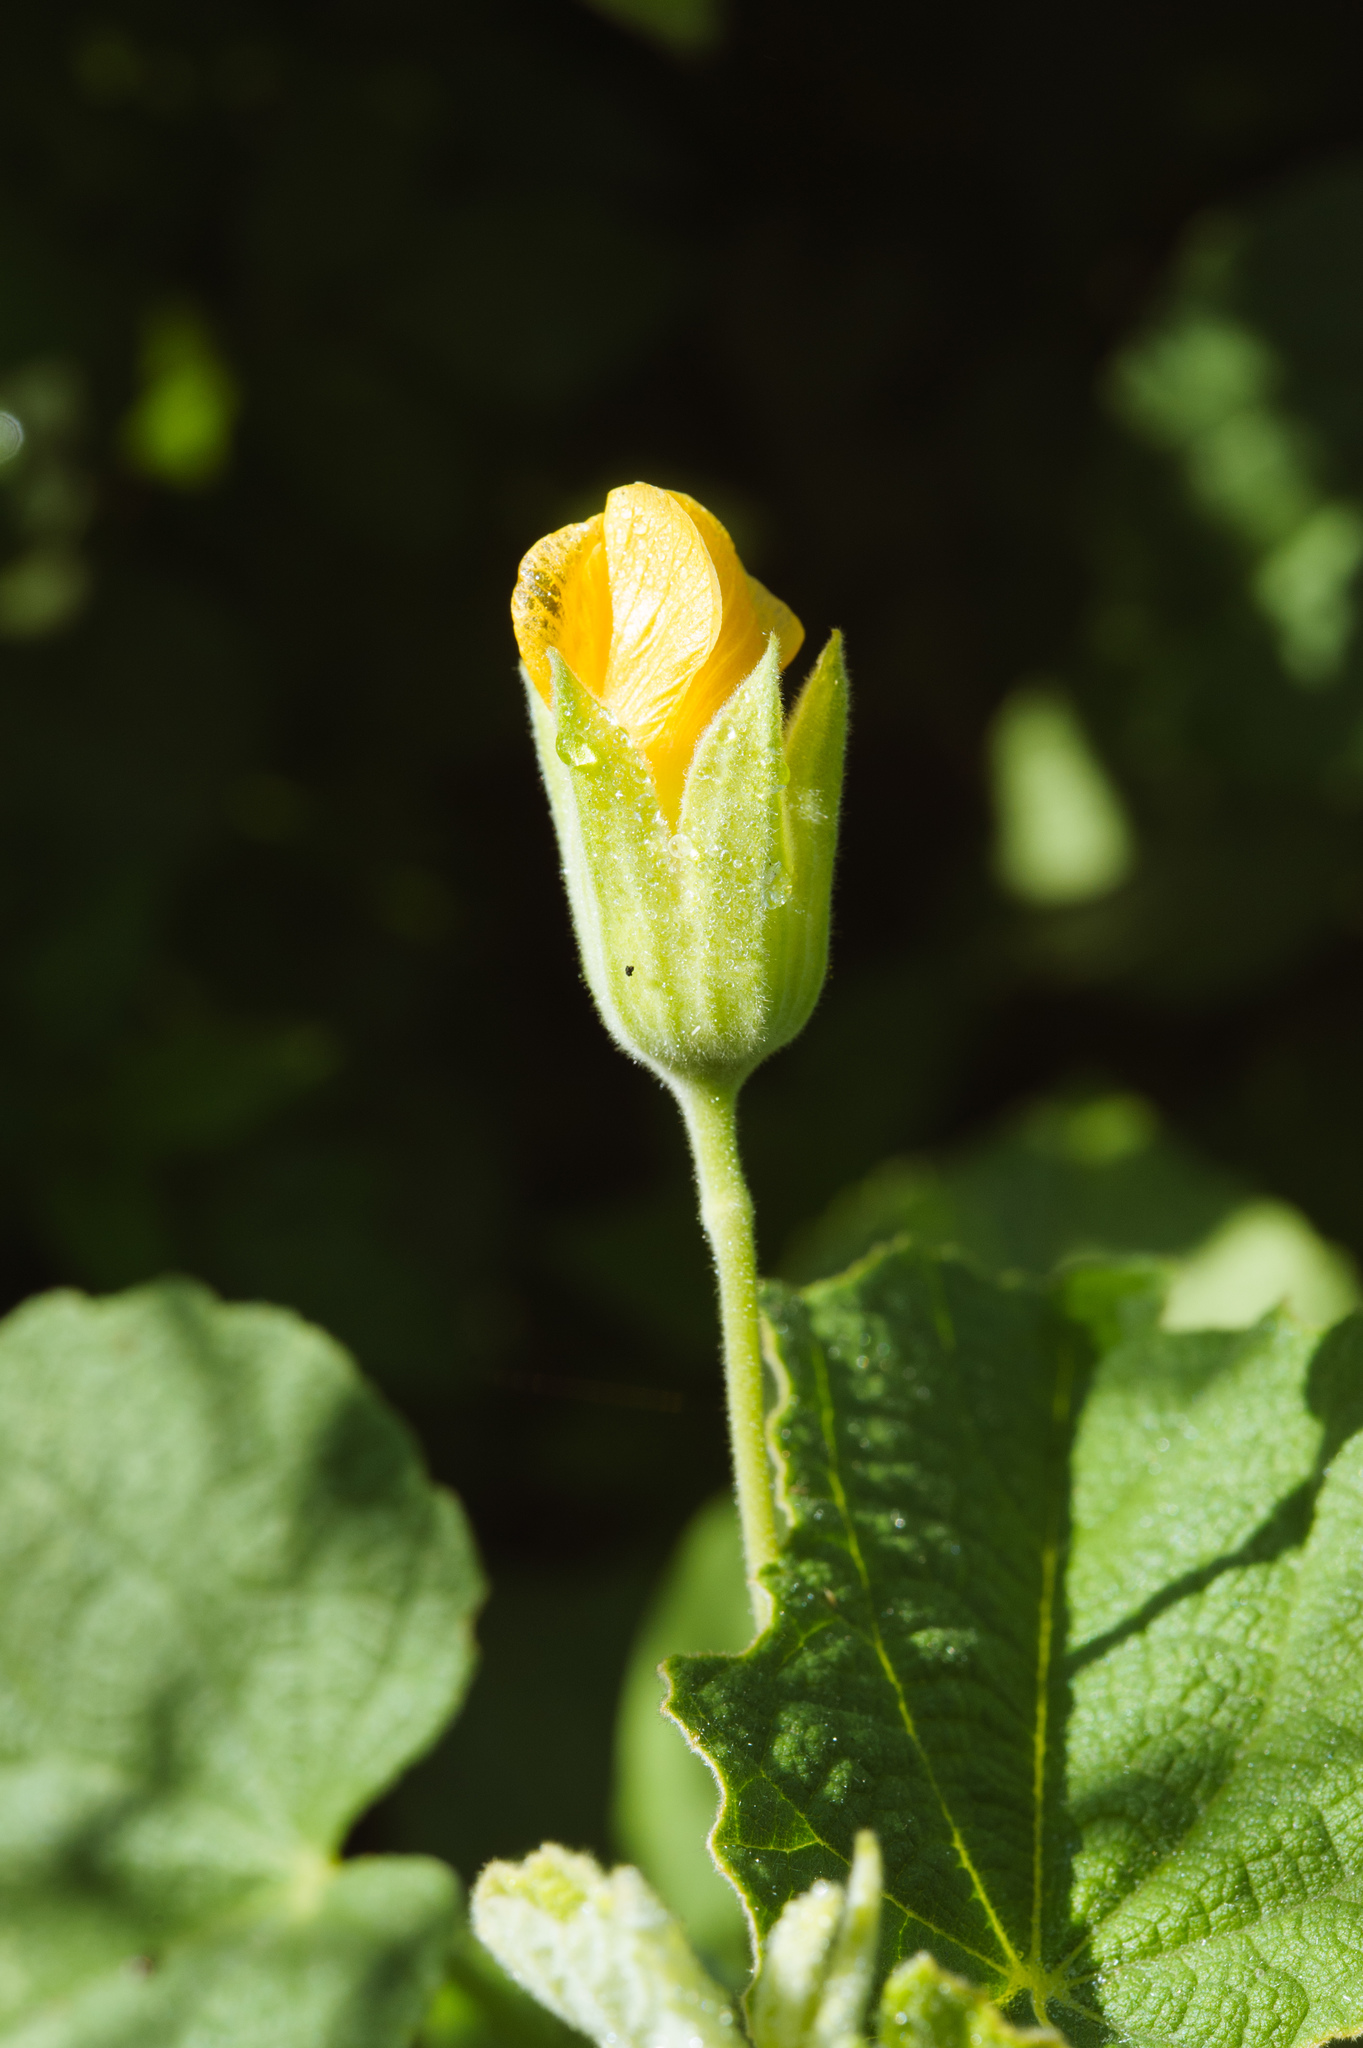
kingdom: Plantae
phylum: Tracheophyta
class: Magnoliopsida
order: Malvales
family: Malvaceae
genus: Abutilon
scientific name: Abutilon guineense
